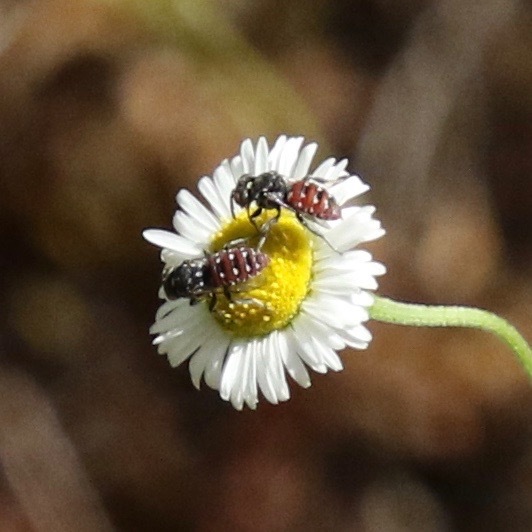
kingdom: Animalia
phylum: Arthropoda
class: Insecta
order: Hymenoptera
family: Apidae
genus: Holcopasites
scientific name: Holcopasites calliopsidis
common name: Calliopsis cuckoo nomad bee
